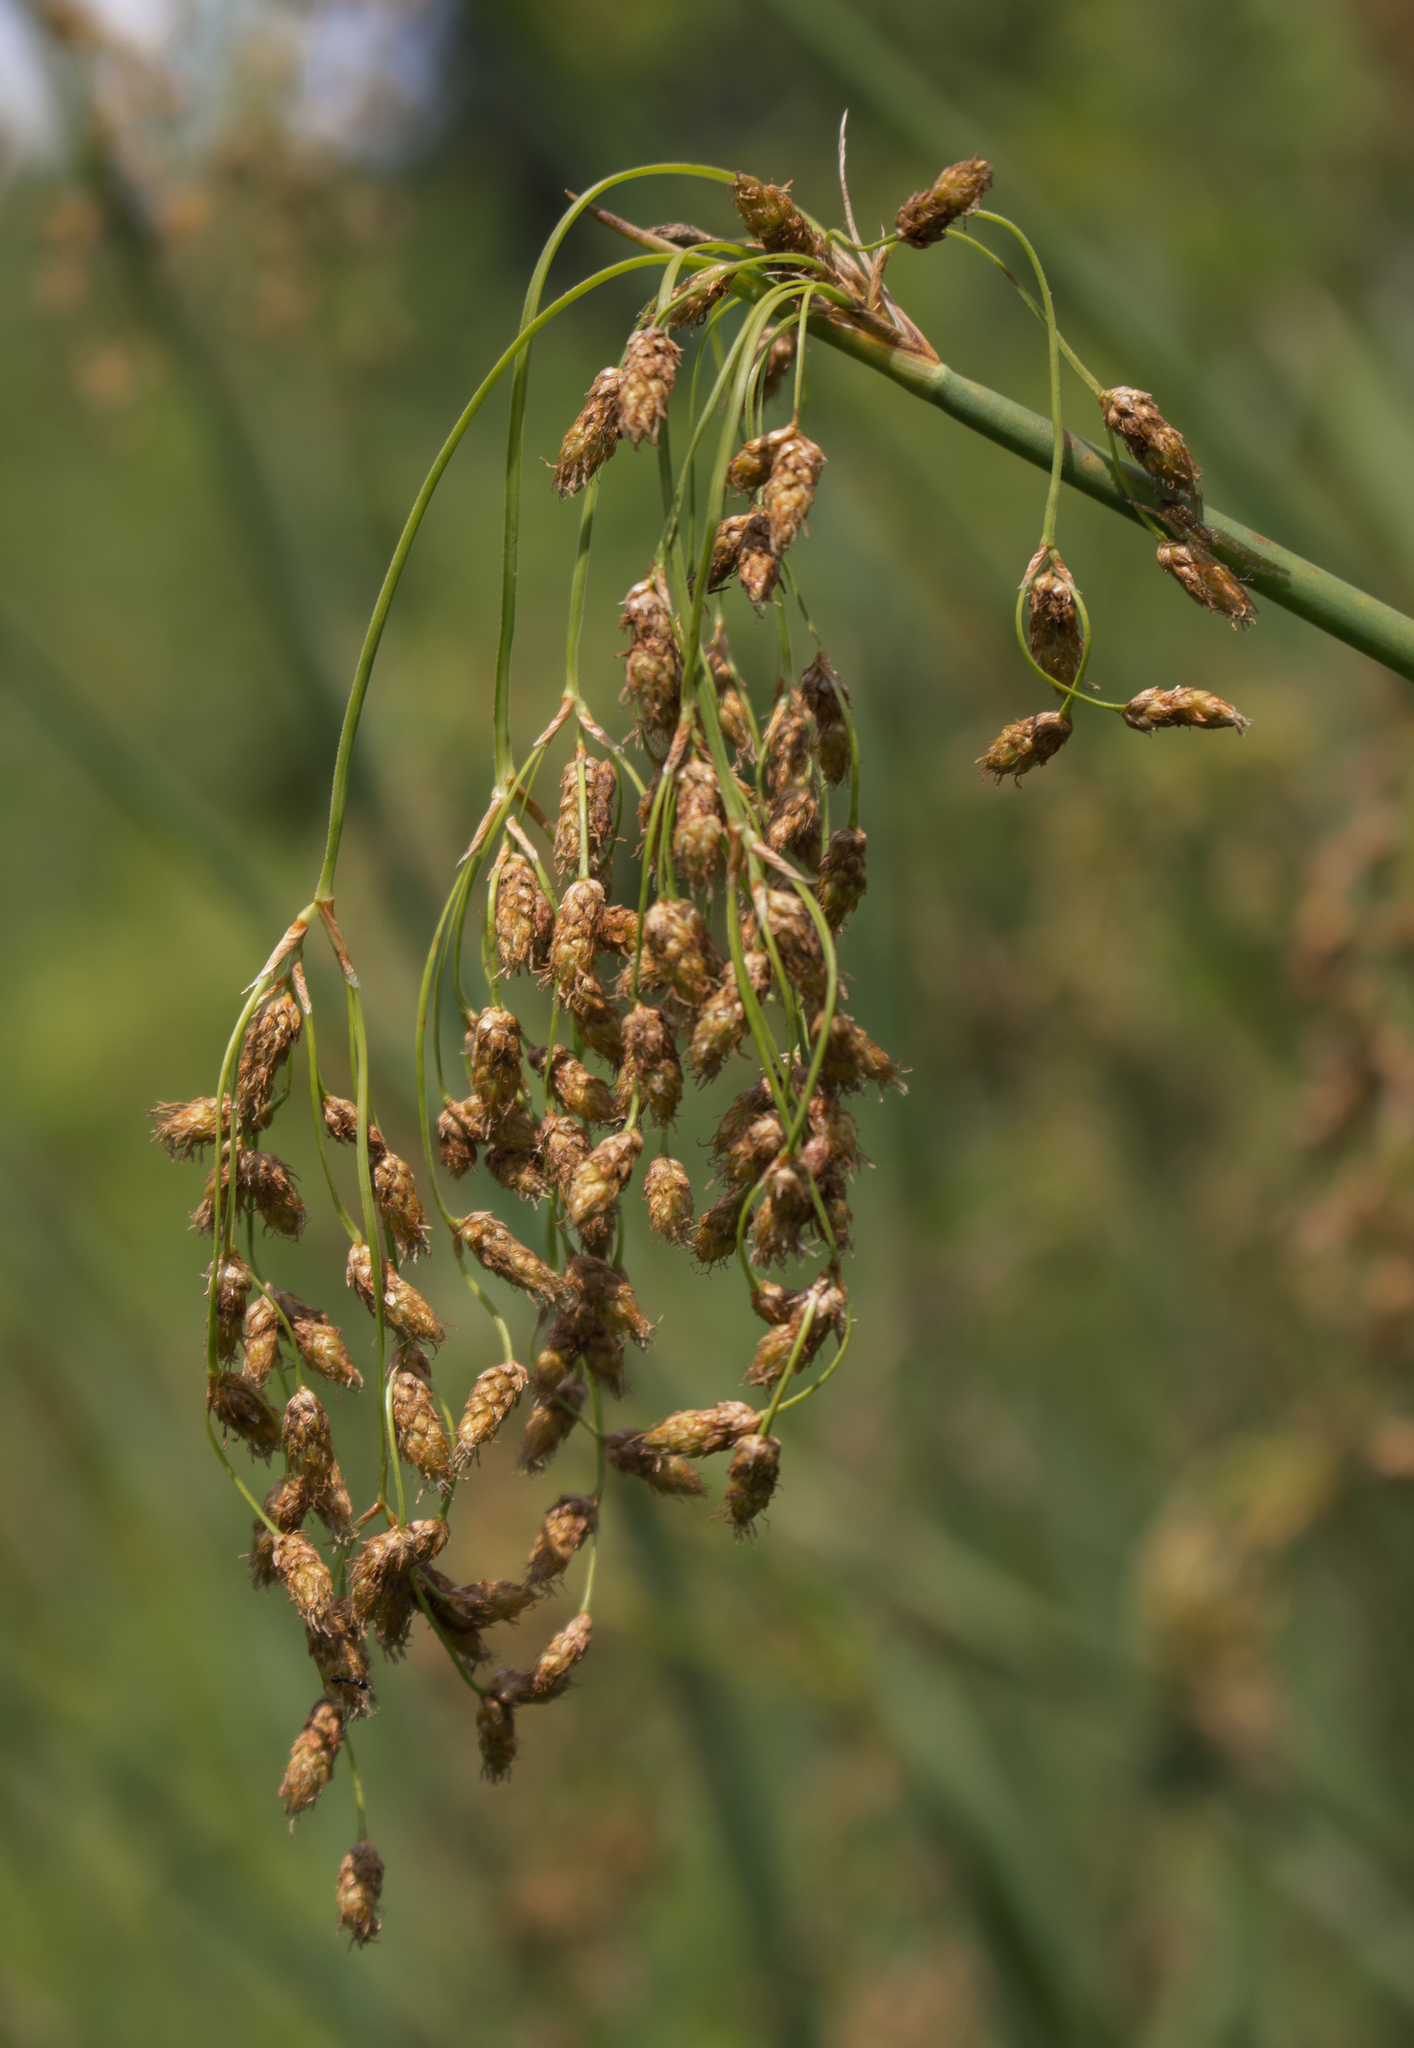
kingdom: Plantae
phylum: Tracheophyta
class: Liliopsida
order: Poales
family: Cyperaceae
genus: Schoenoplectus
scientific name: Schoenoplectus tabernaemontani
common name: Grey club-rush
